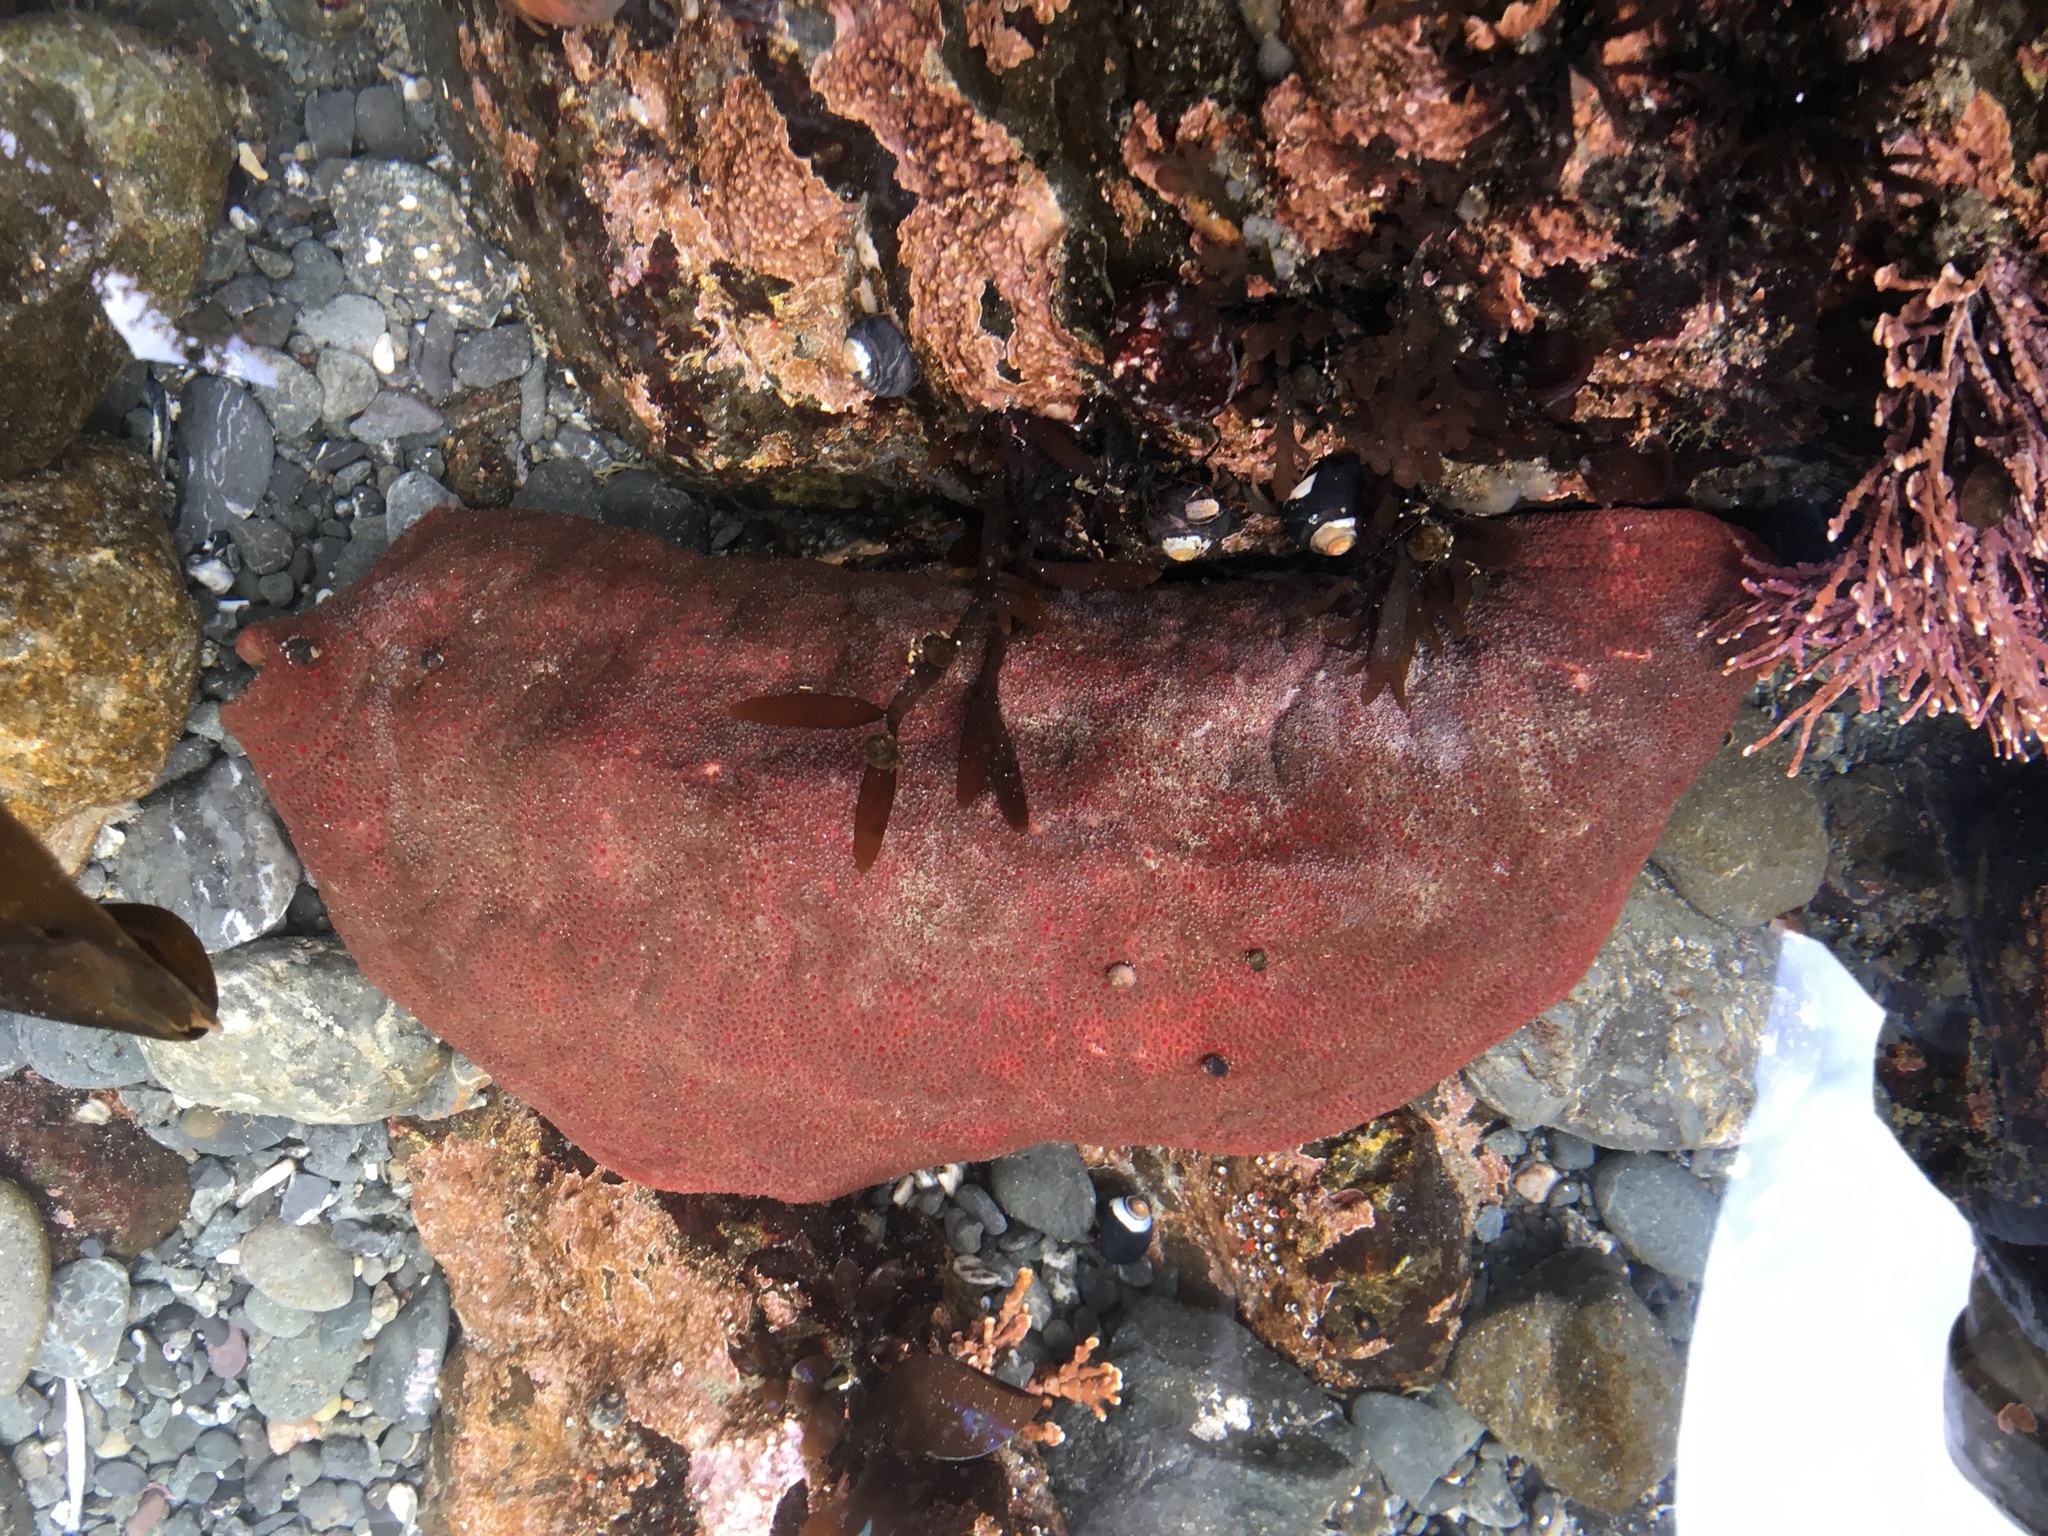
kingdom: Animalia
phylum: Mollusca
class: Polyplacophora
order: Chitonida
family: Acanthochitonidae
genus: Cryptochiton
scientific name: Cryptochiton stelleri
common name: Giant pacific chiton
